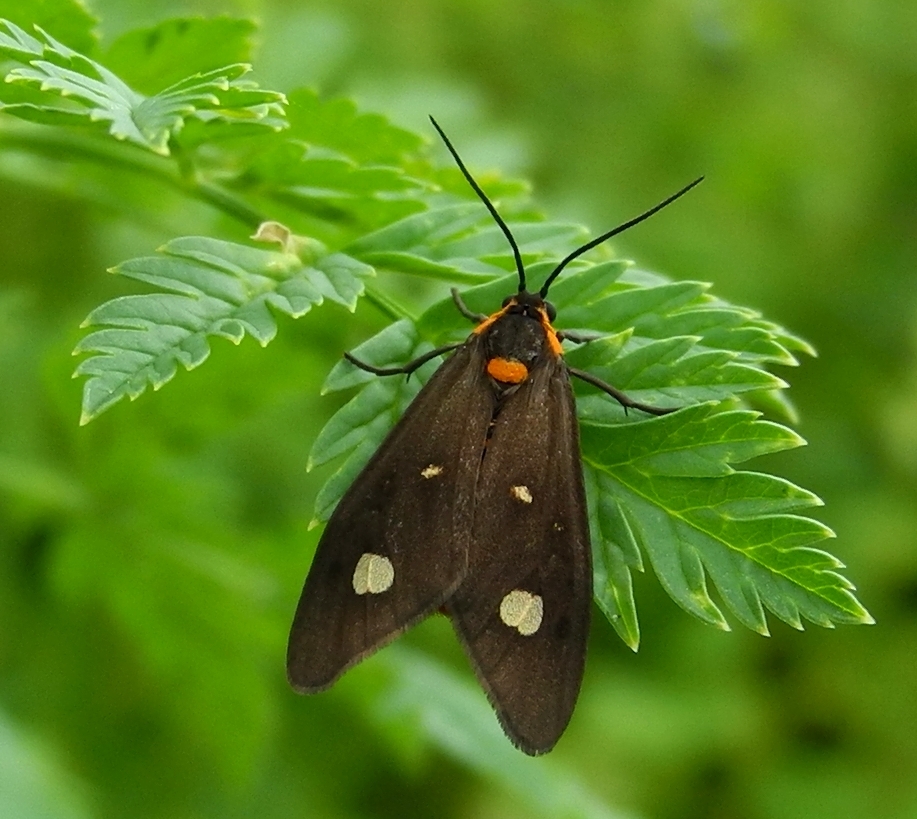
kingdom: Animalia
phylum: Arthropoda
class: Insecta
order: Lepidoptera
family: Erebidae
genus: Dysauxes
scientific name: Dysauxes punctata
